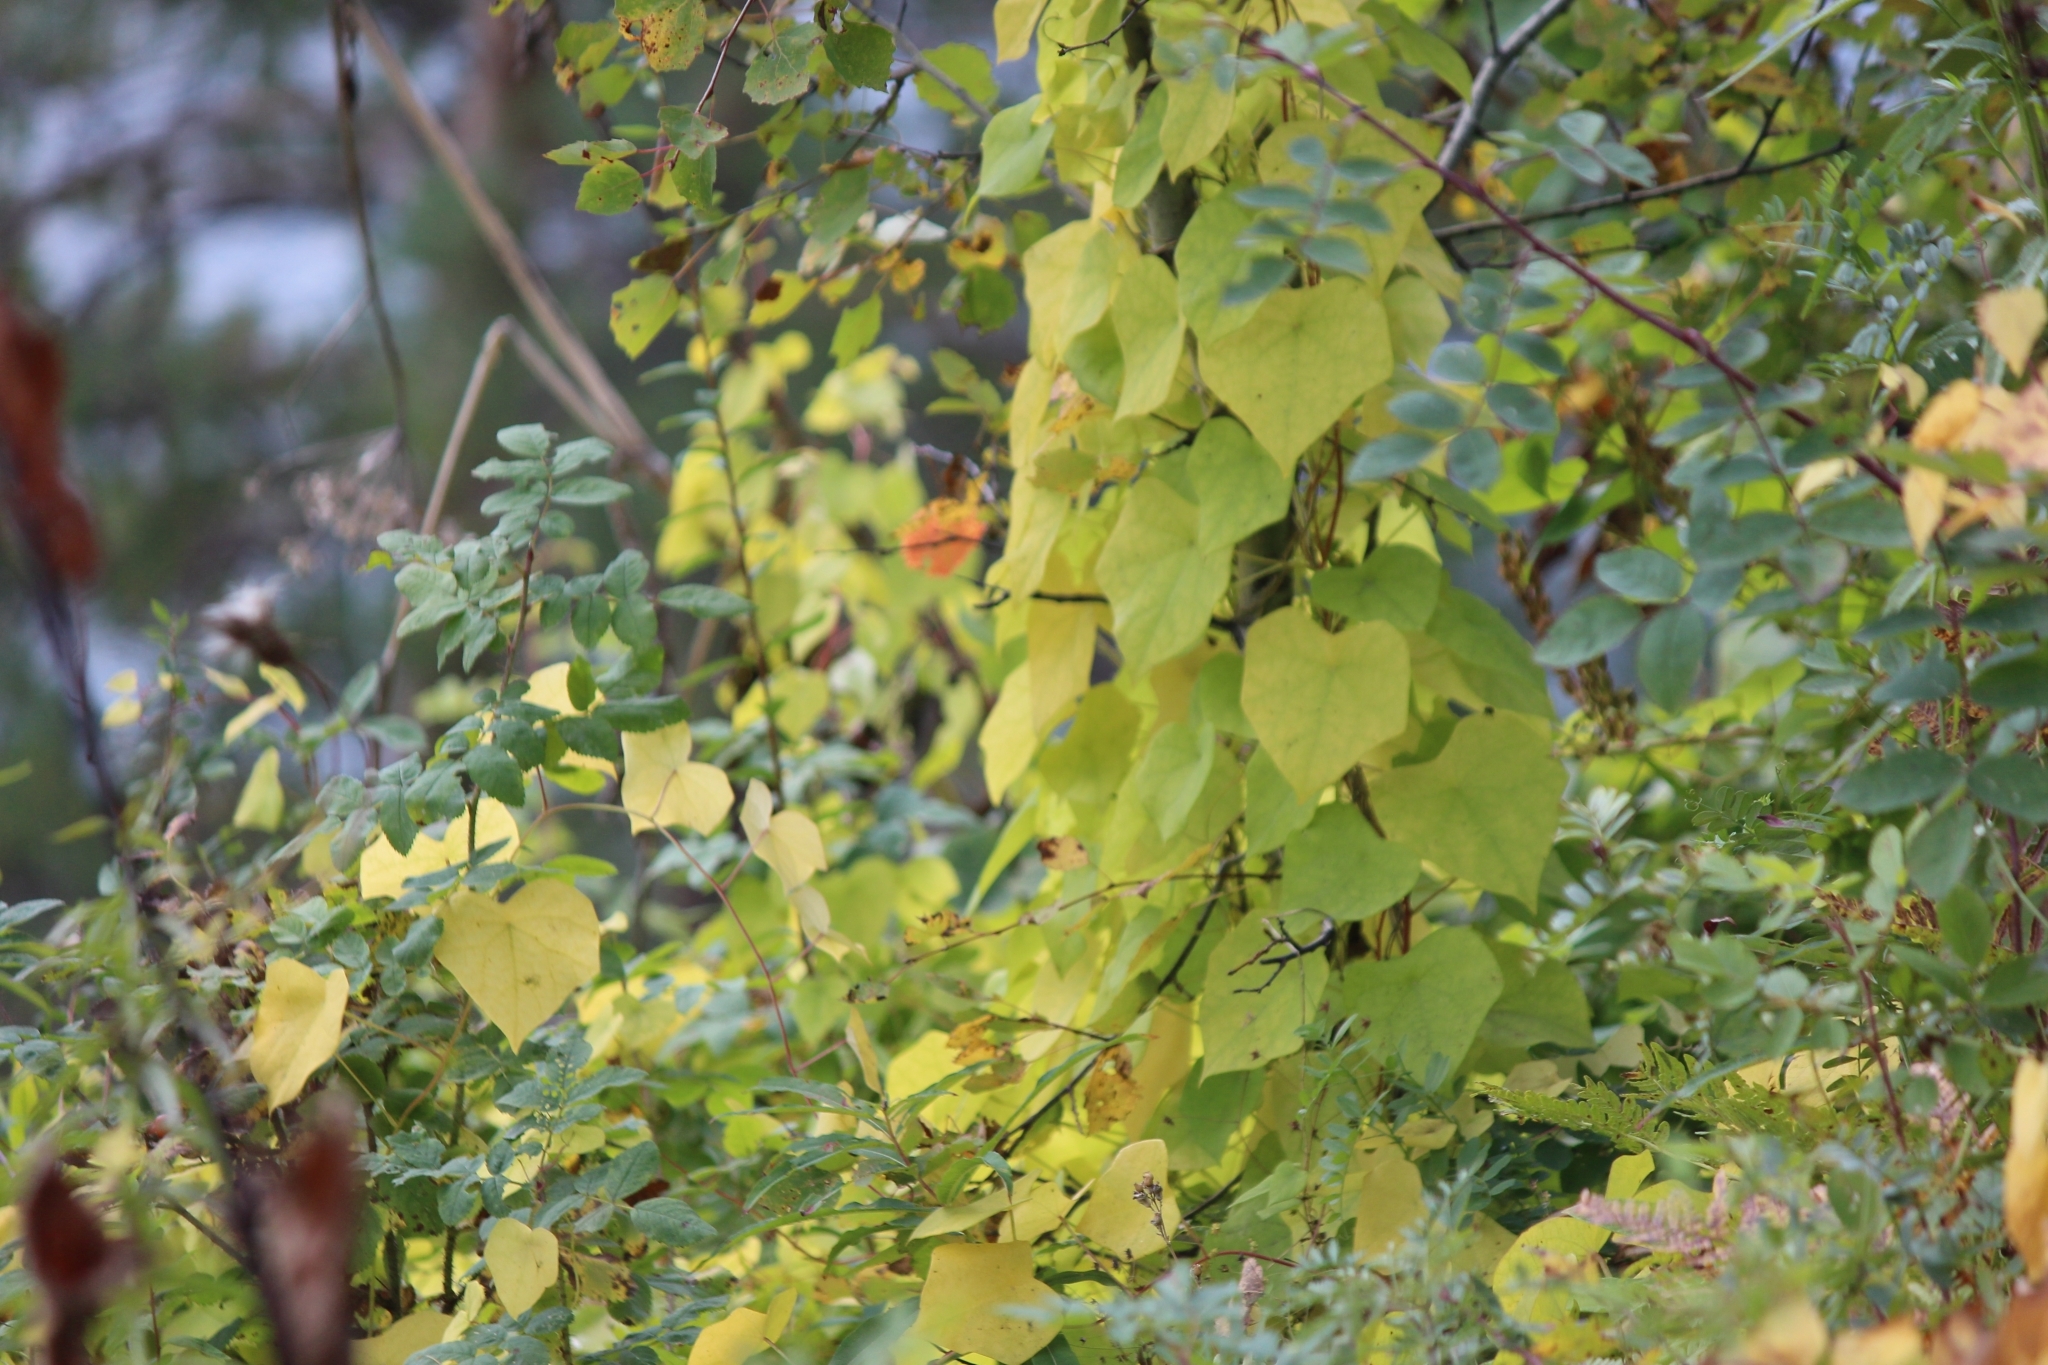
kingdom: Plantae
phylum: Tracheophyta
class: Magnoliopsida
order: Ranunculales
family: Menispermaceae
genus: Menispermum
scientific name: Menispermum dauricum
